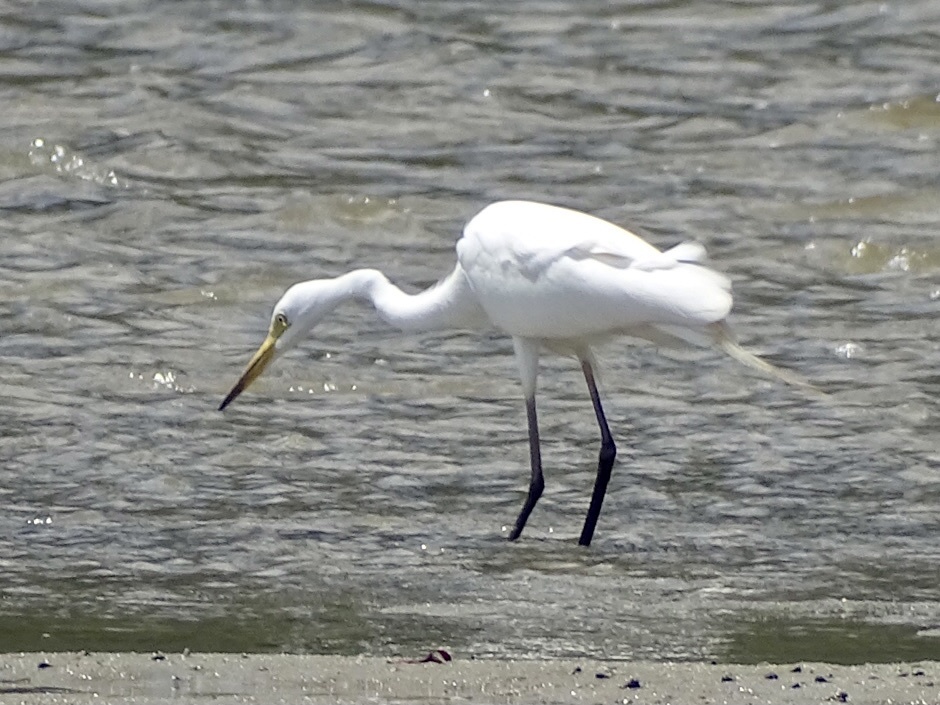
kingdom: Animalia
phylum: Chordata
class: Aves
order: Pelecaniformes
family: Ardeidae
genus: Egretta
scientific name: Egretta intermedia
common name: Intermediate egret
